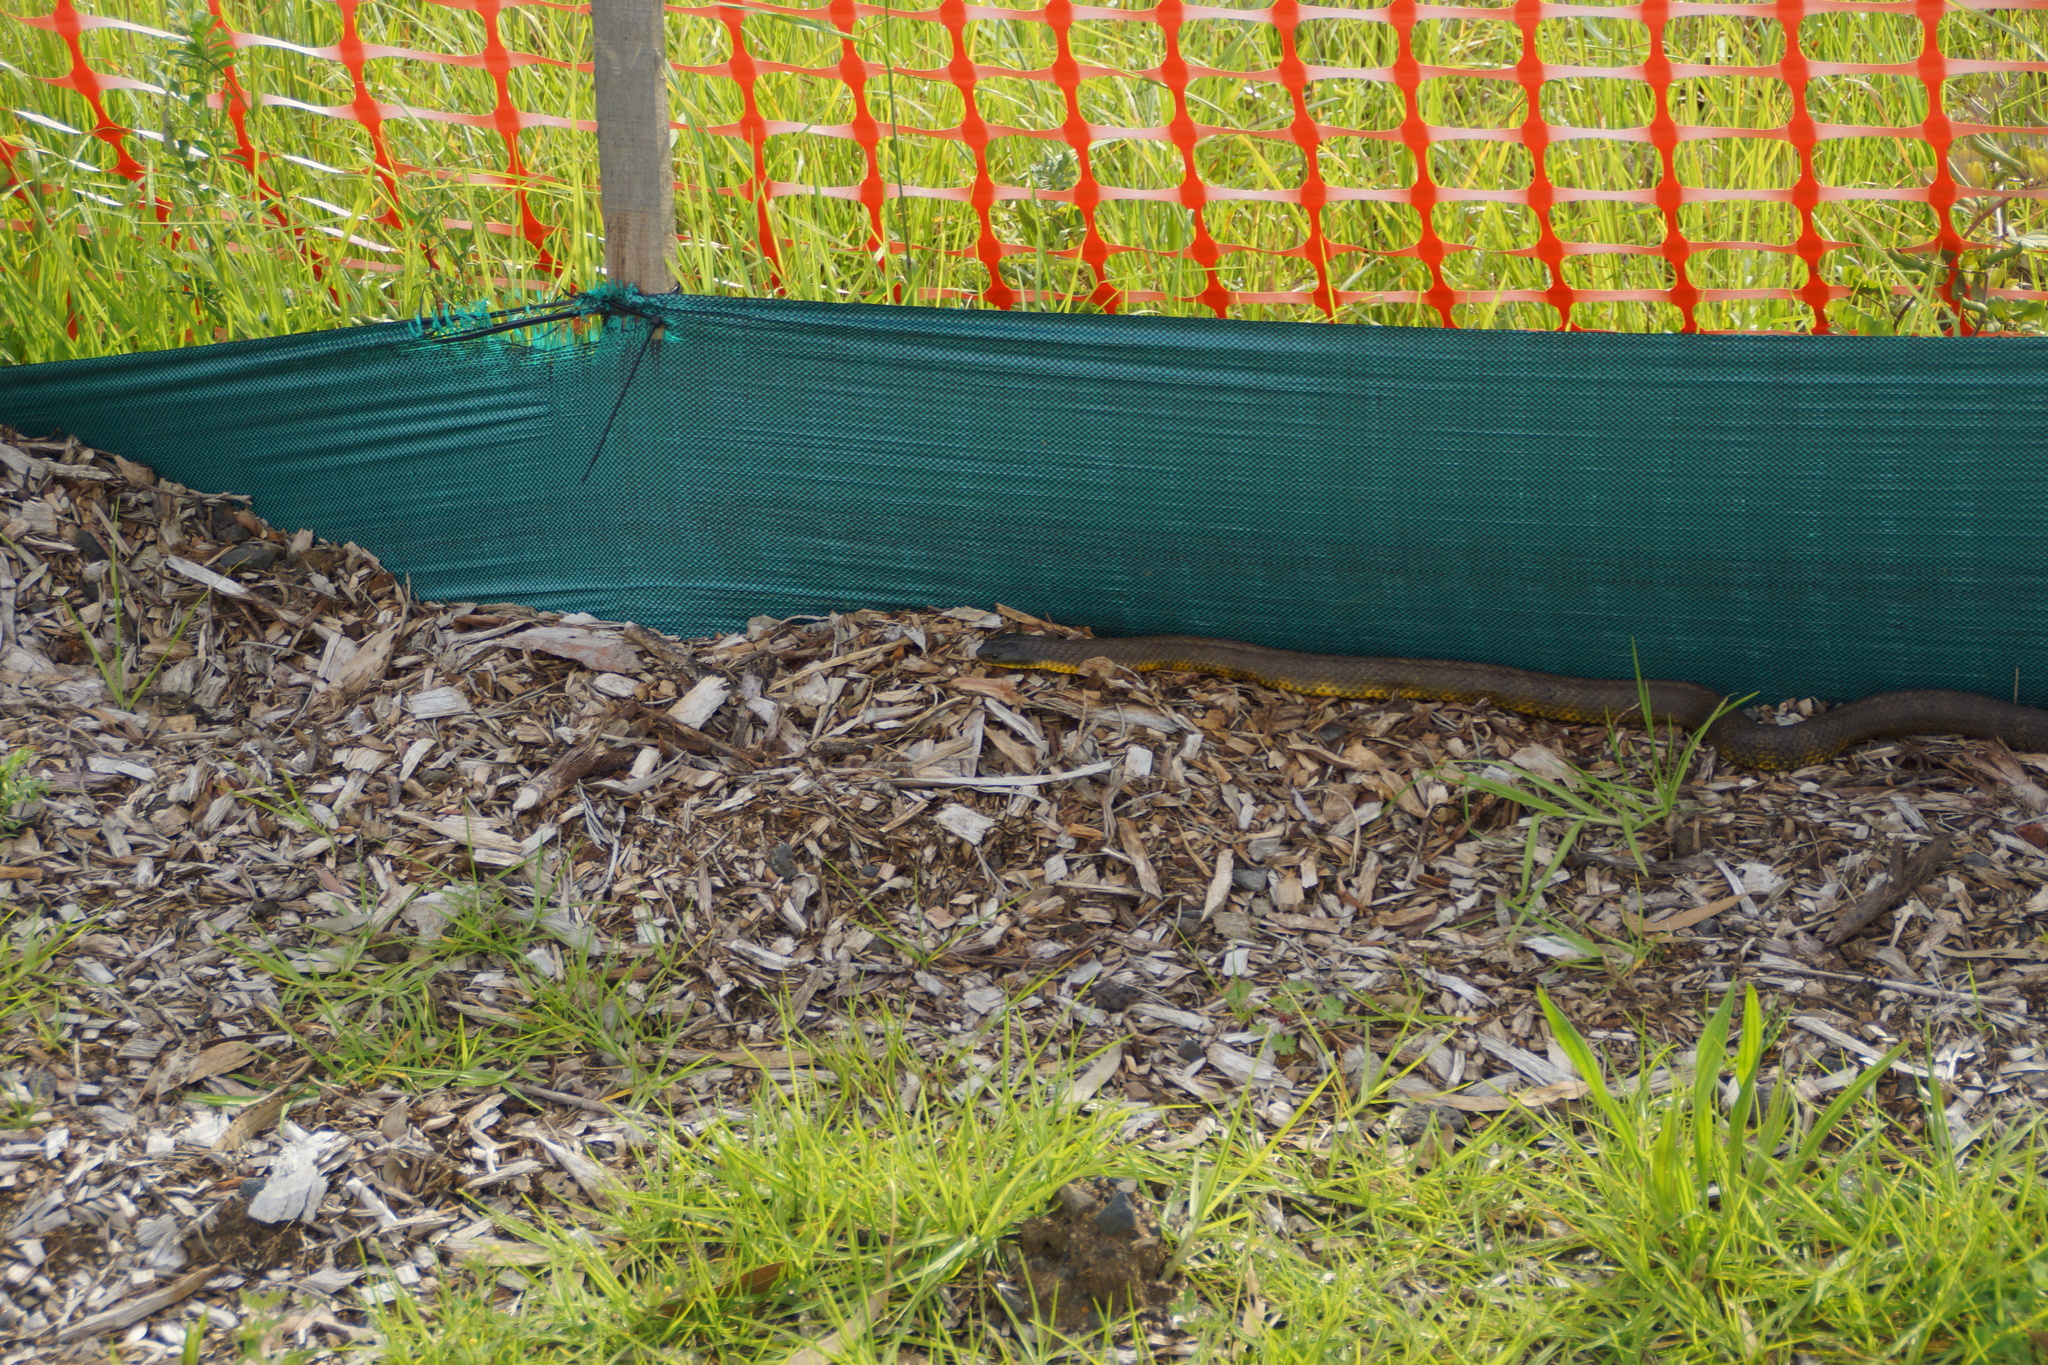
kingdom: Animalia
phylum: Chordata
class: Squamata
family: Elapidae
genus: Notechis
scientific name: Notechis scutatus
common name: Mainland tiger snake
